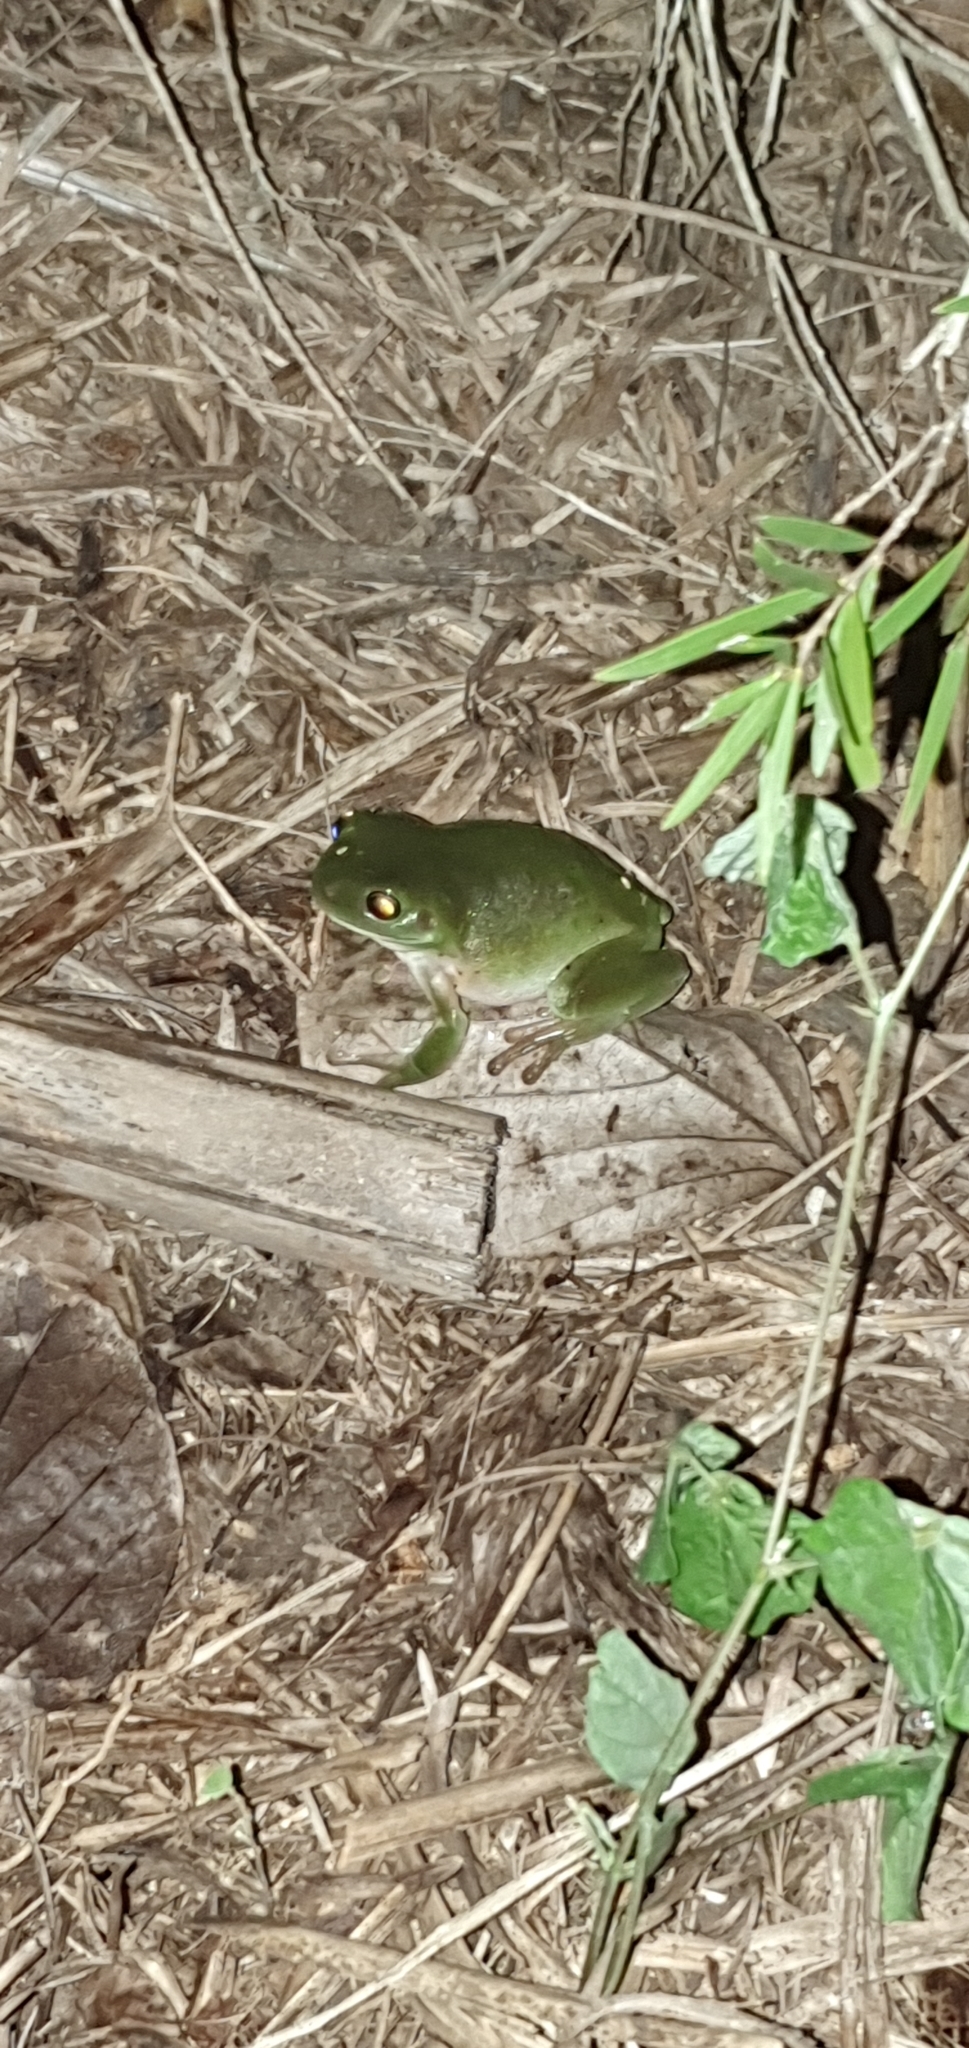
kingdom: Animalia
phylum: Chordata
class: Amphibia
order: Anura
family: Pelodryadidae
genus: Ranoidea
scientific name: Ranoidea caerulea
